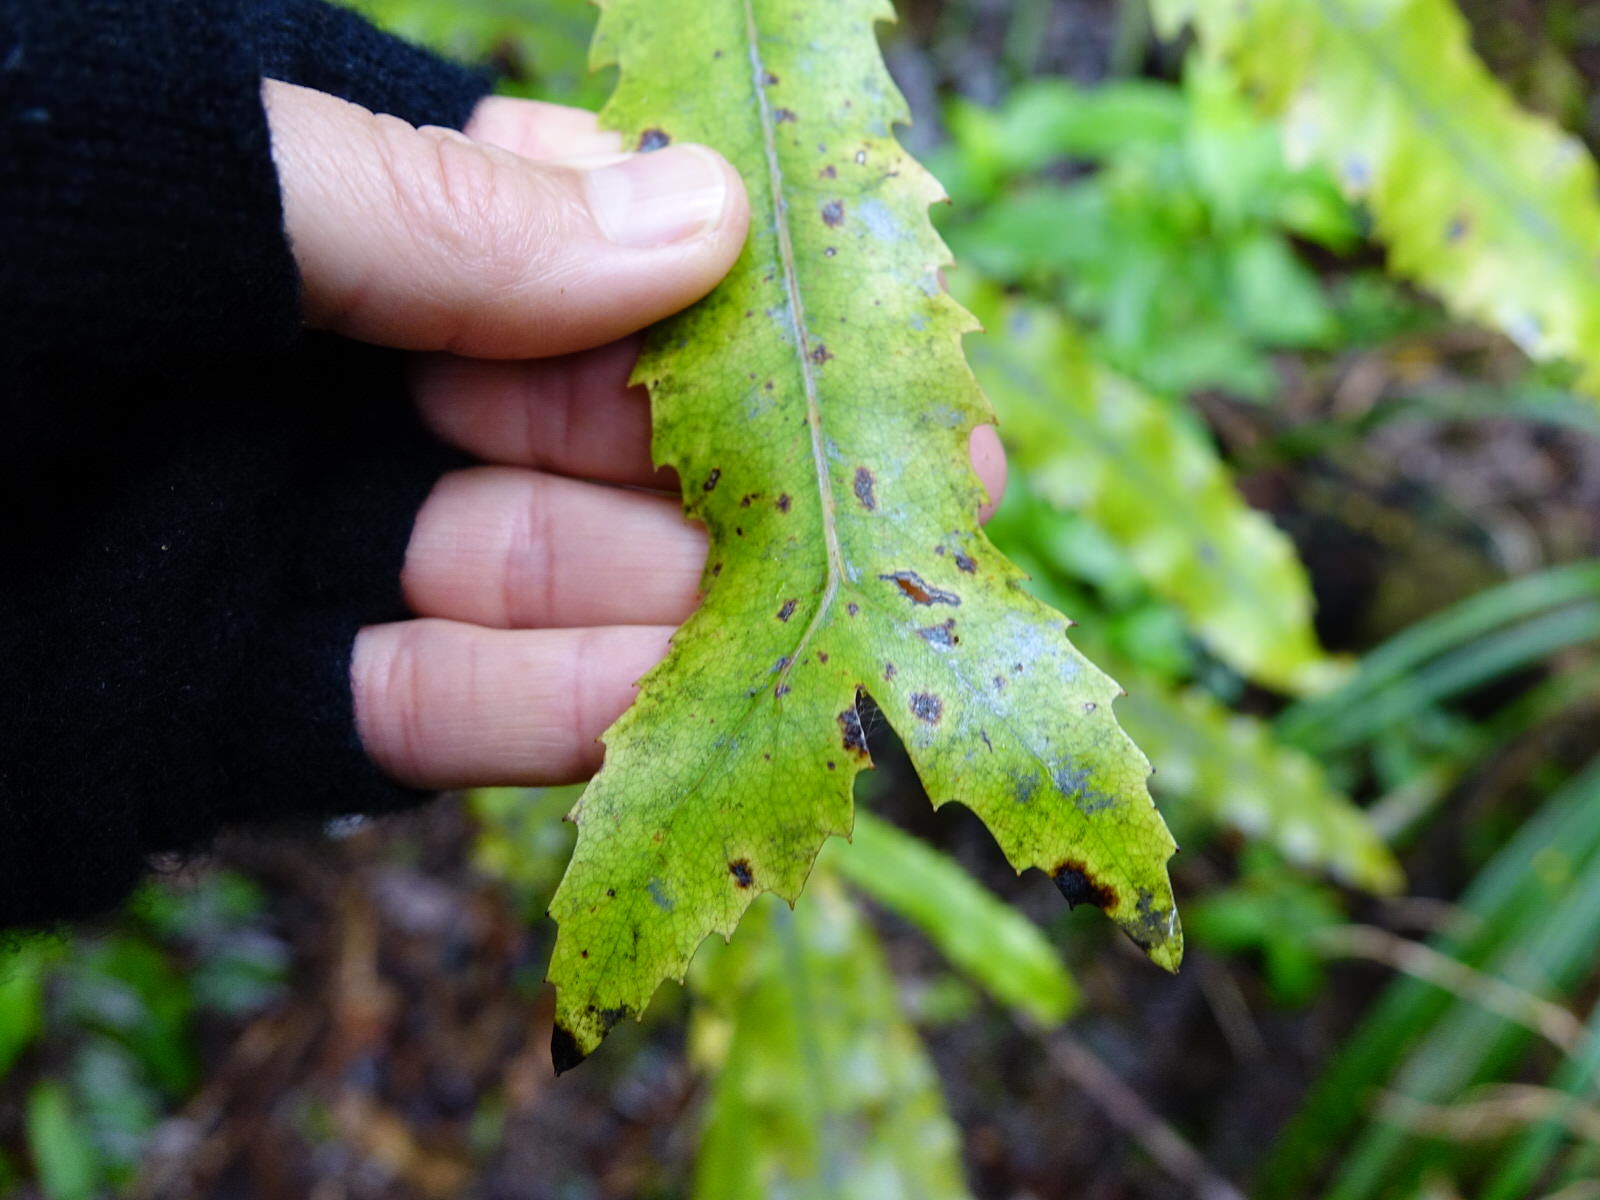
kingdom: Plantae
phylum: Tracheophyta
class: Magnoliopsida
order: Proteales
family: Proteaceae
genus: Knightia
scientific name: Knightia excelsa
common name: New zealand-honeysuckle
